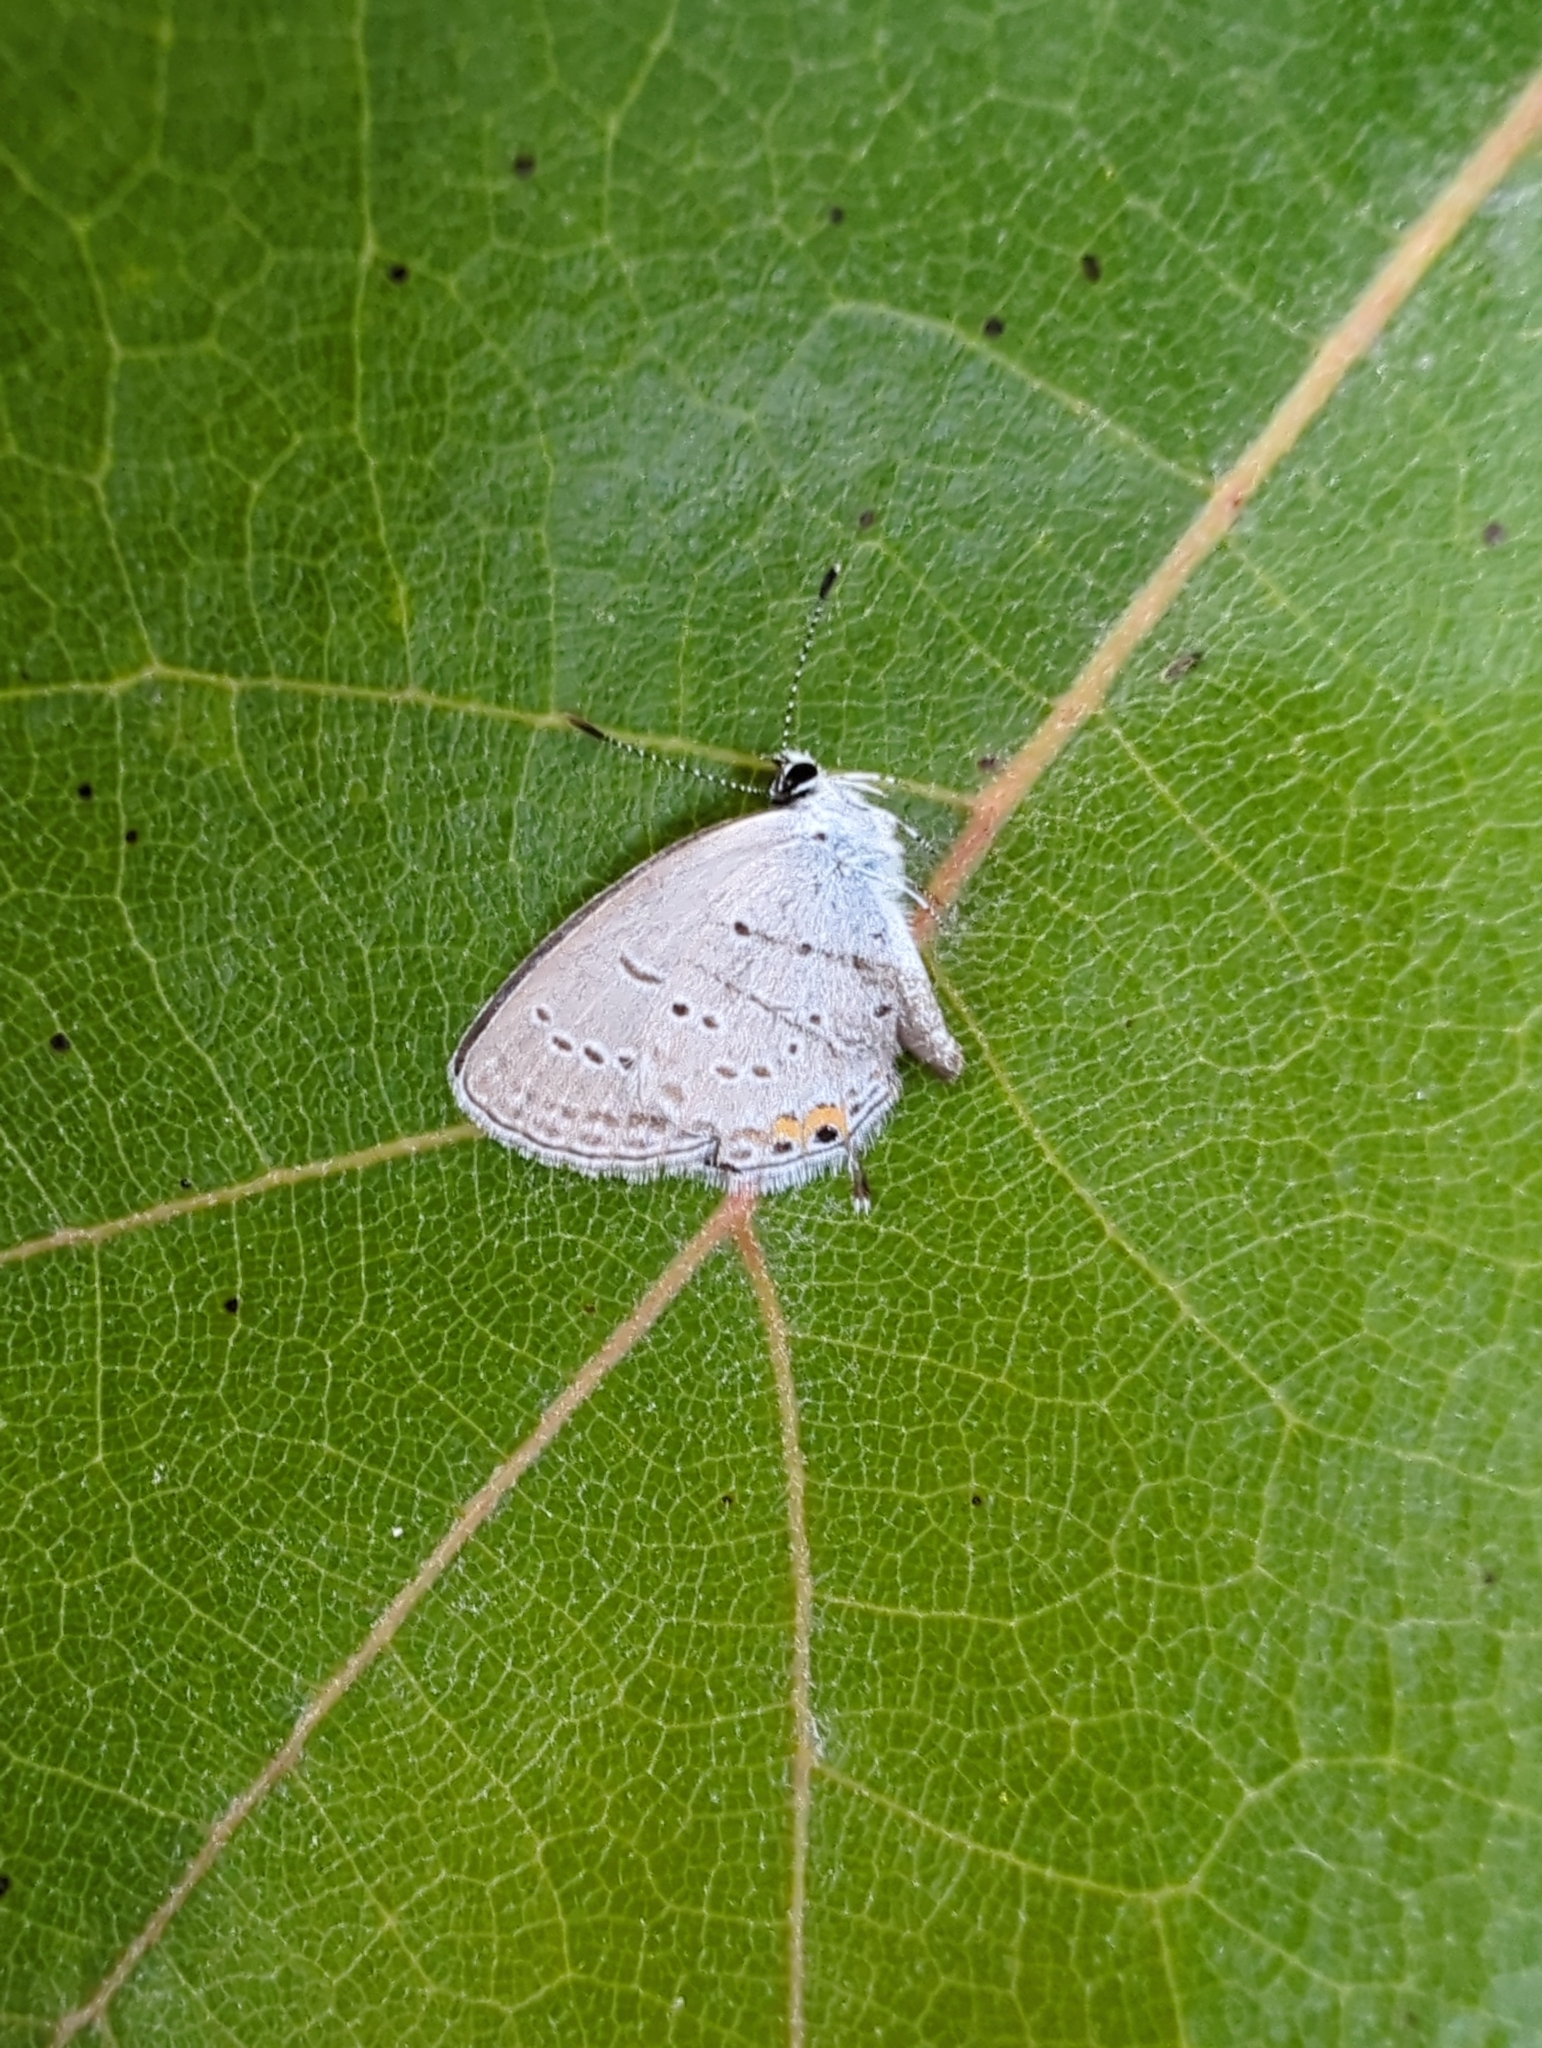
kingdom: Animalia
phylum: Arthropoda
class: Insecta
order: Lepidoptera
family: Lycaenidae
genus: Elkalyce
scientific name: Elkalyce comyntas
